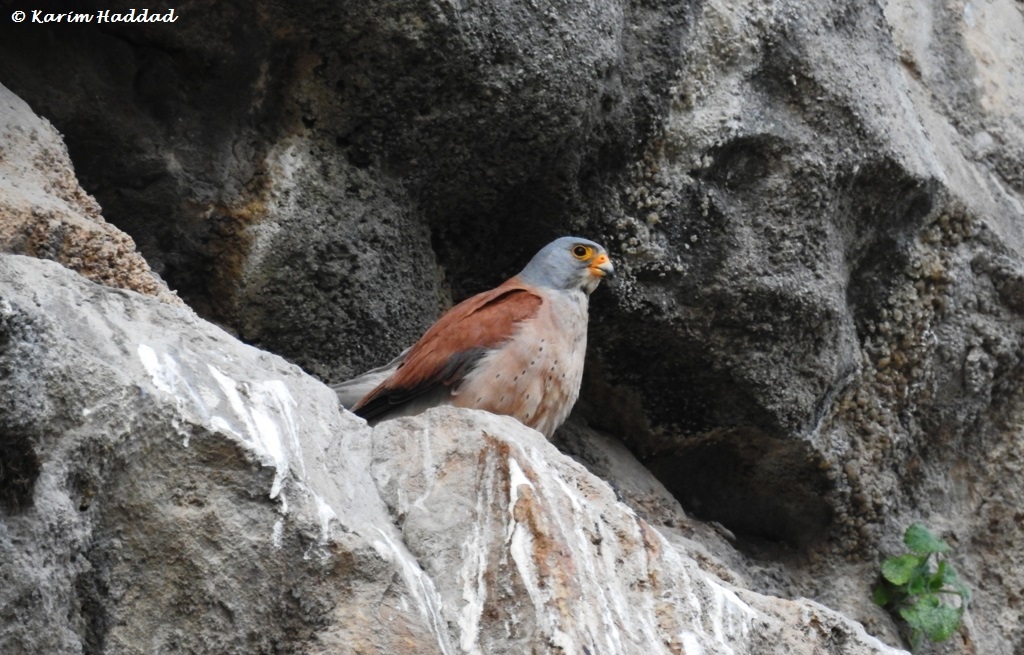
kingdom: Animalia
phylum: Chordata
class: Aves
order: Falconiformes
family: Falconidae
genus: Falco
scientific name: Falco naumanni
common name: Lesser kestrel
